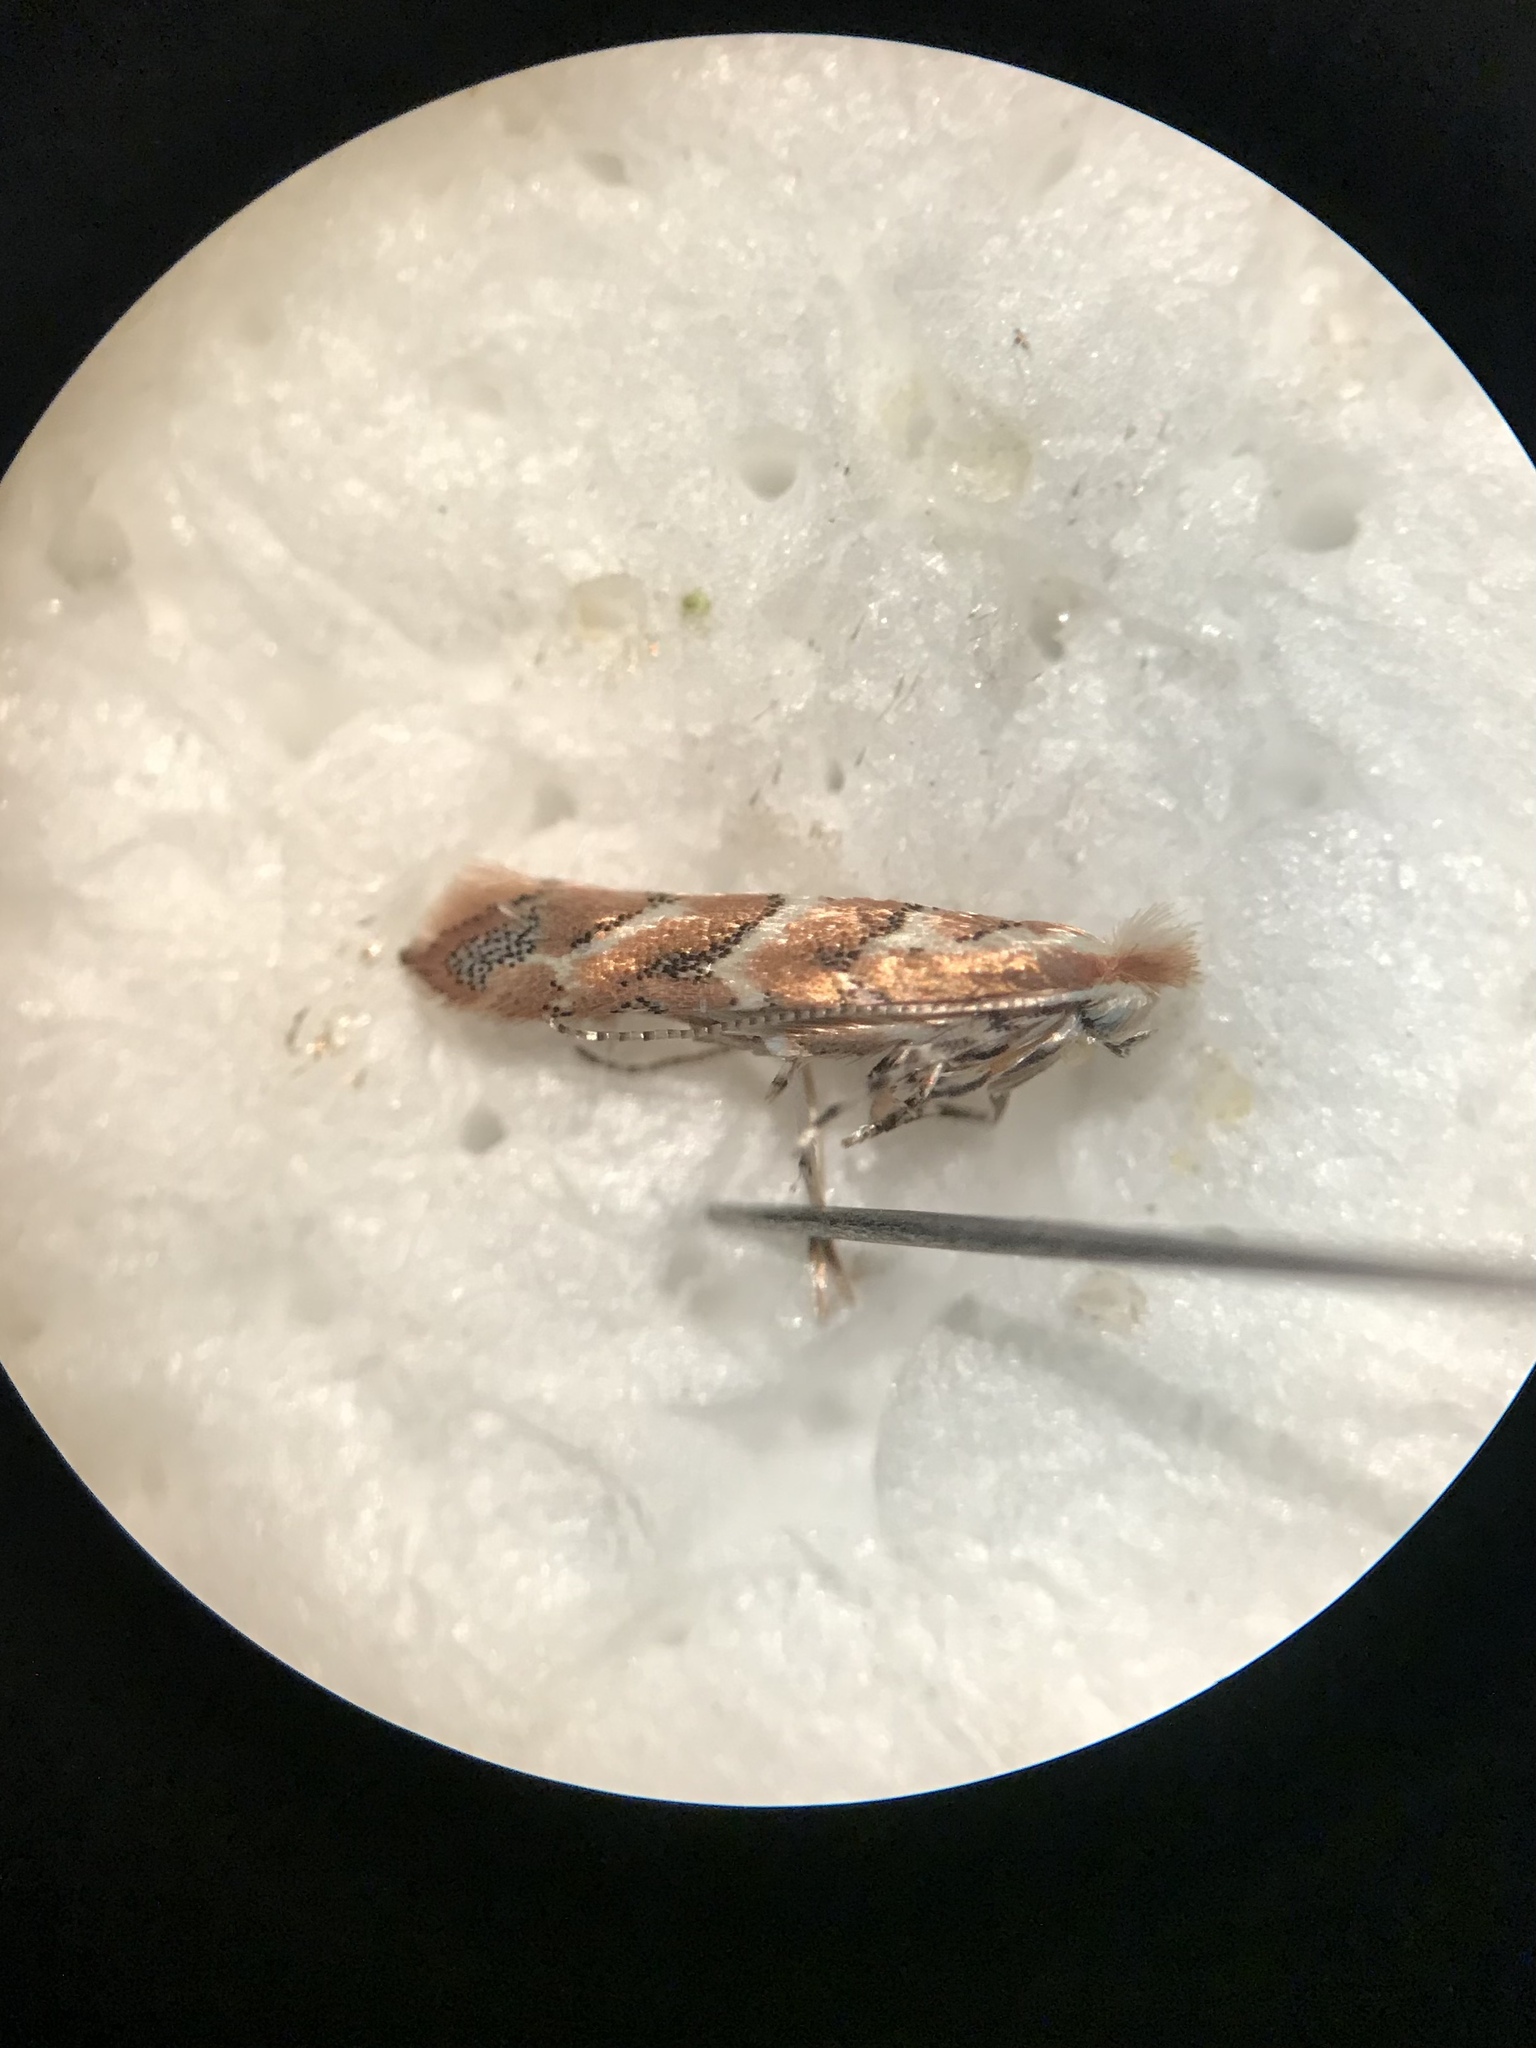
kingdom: Animalia
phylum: Arthropoda
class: Insecta
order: Lepidoptera
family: Gracillariidae
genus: Cameraria
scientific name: Cameraria macrocarpella
